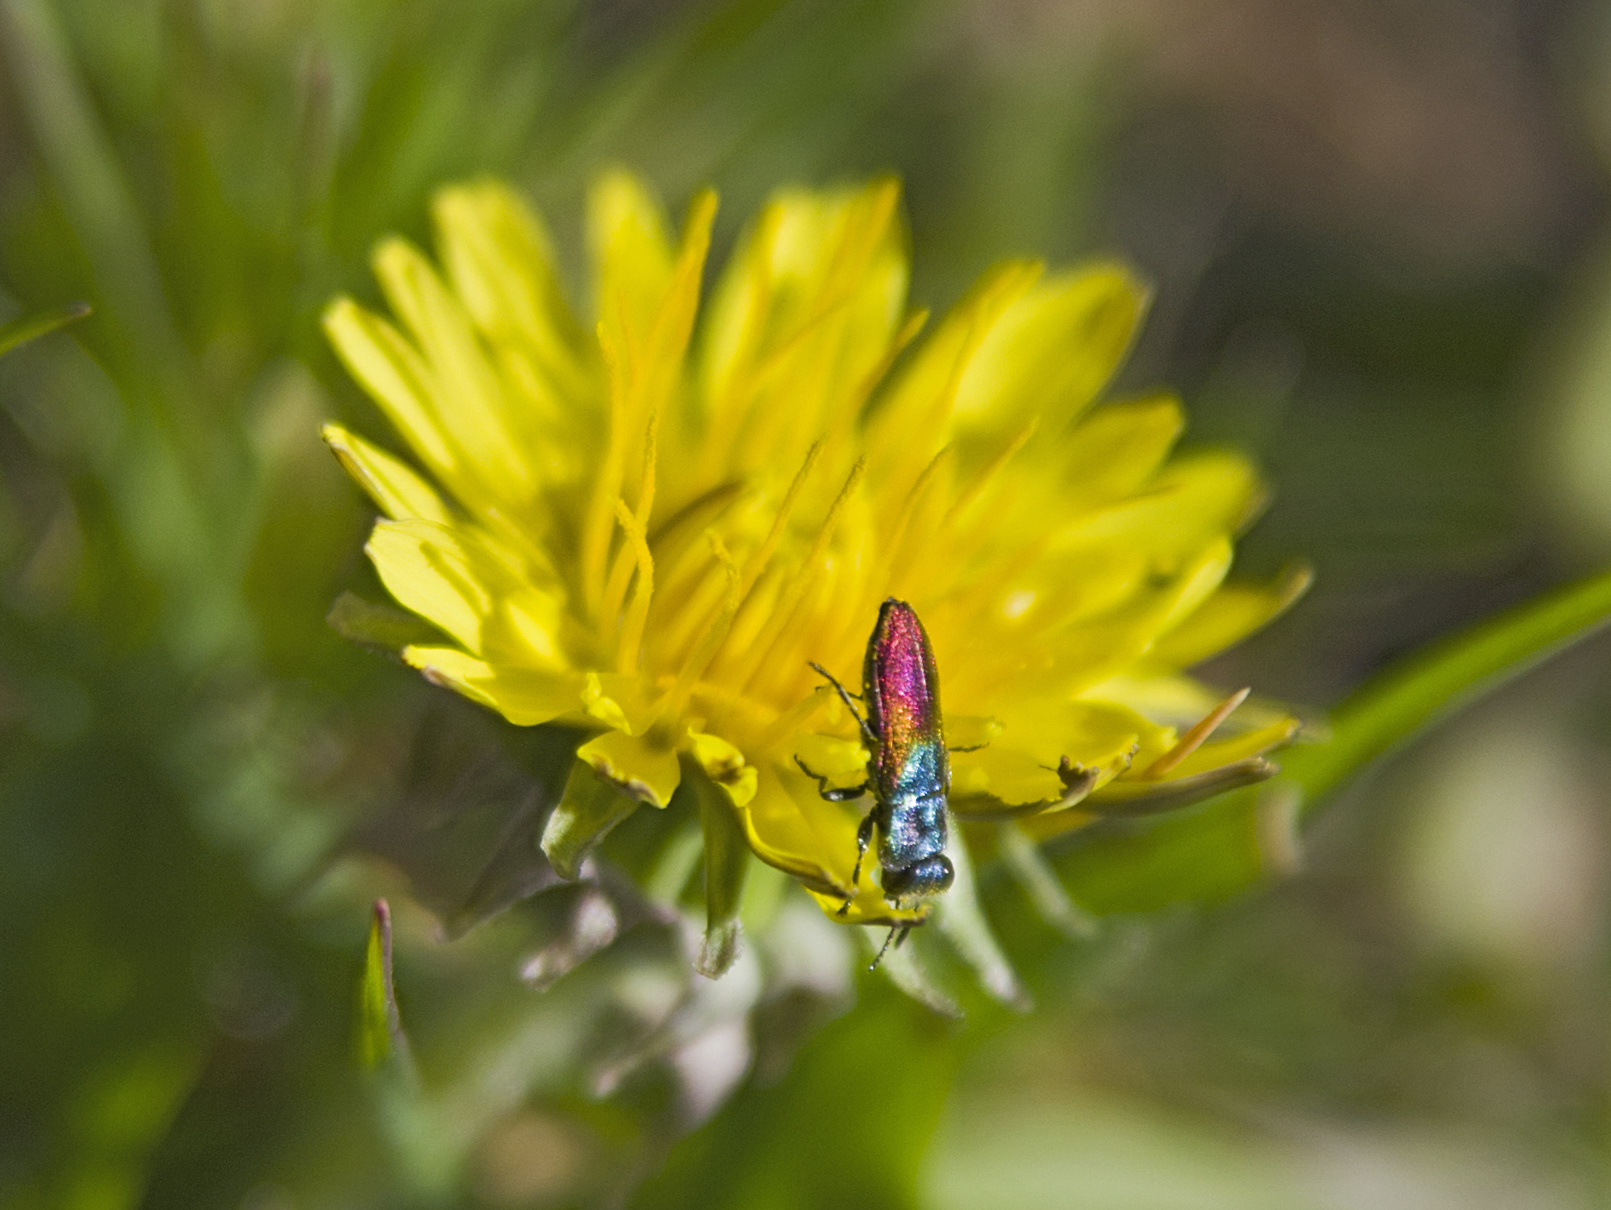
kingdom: Animalia
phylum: Arthropoda
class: Insecta
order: Coleoptera
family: Buprestidae
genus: Anthaxia
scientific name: Anthaxia salicis
